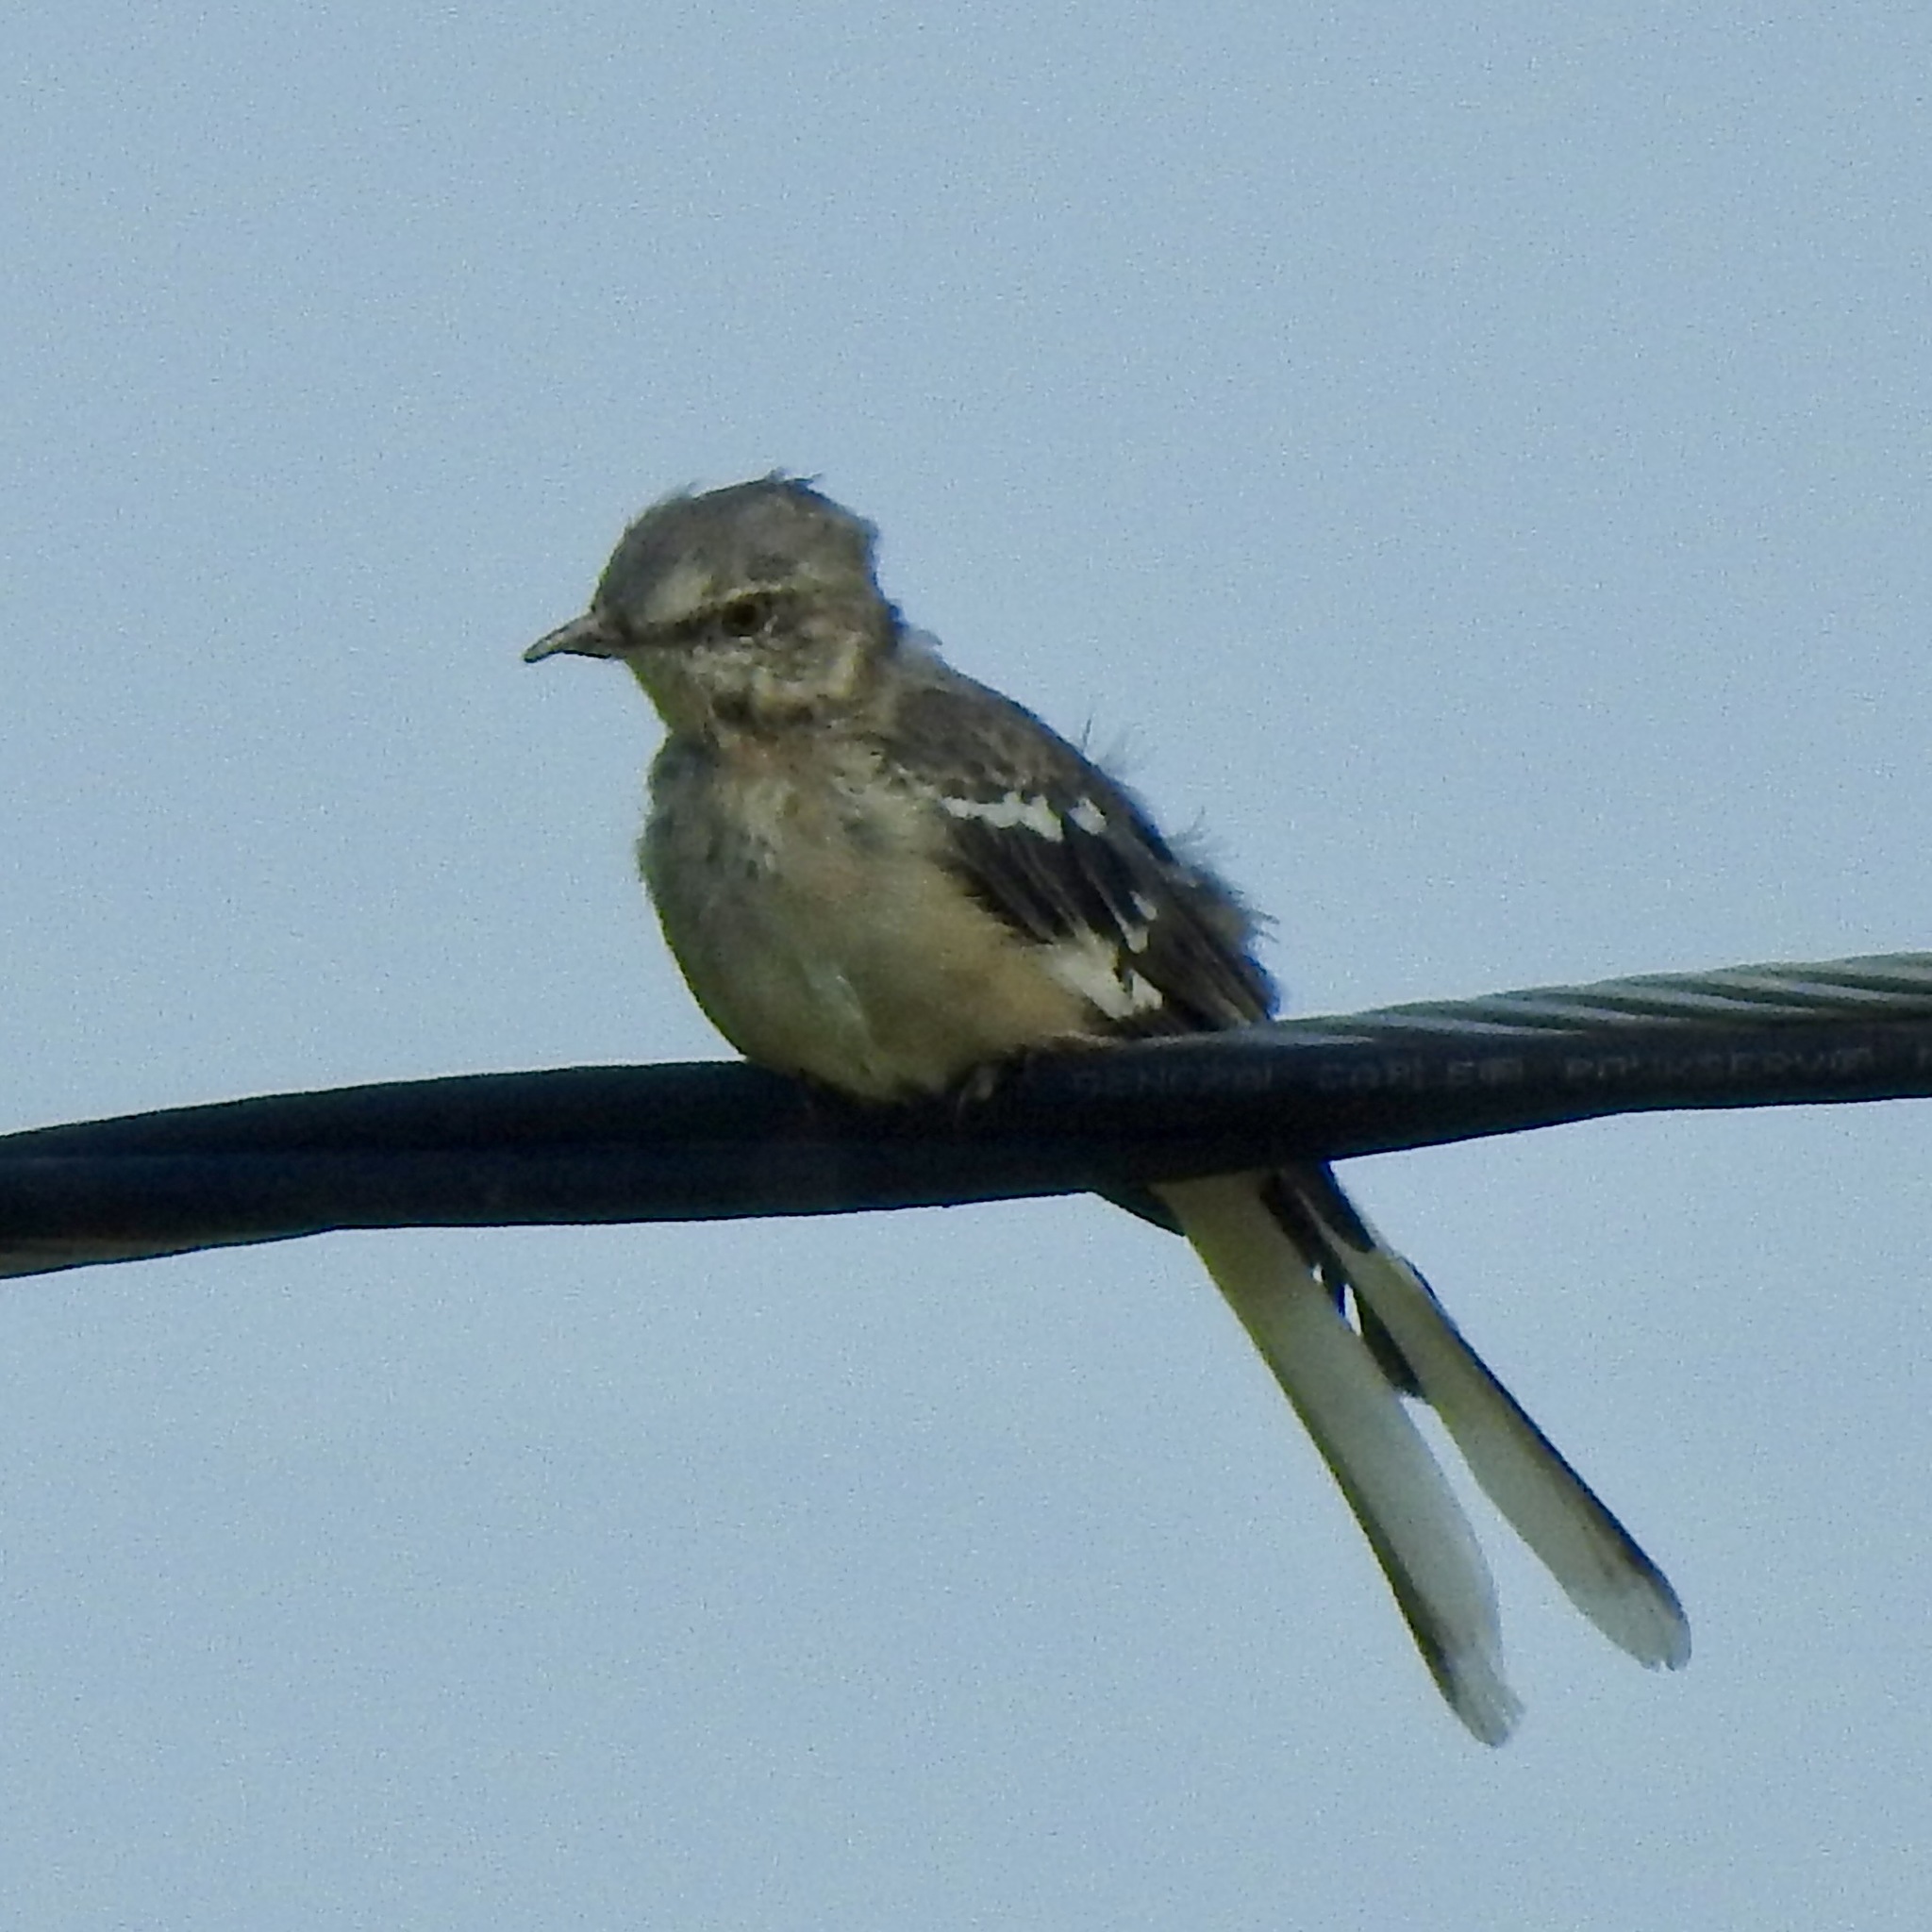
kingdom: Animalia
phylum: Chordata
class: Aves
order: Passeriformes
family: Mimidae
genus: Mimus
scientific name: Mimus polyglottos
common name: Northern mockingbird
